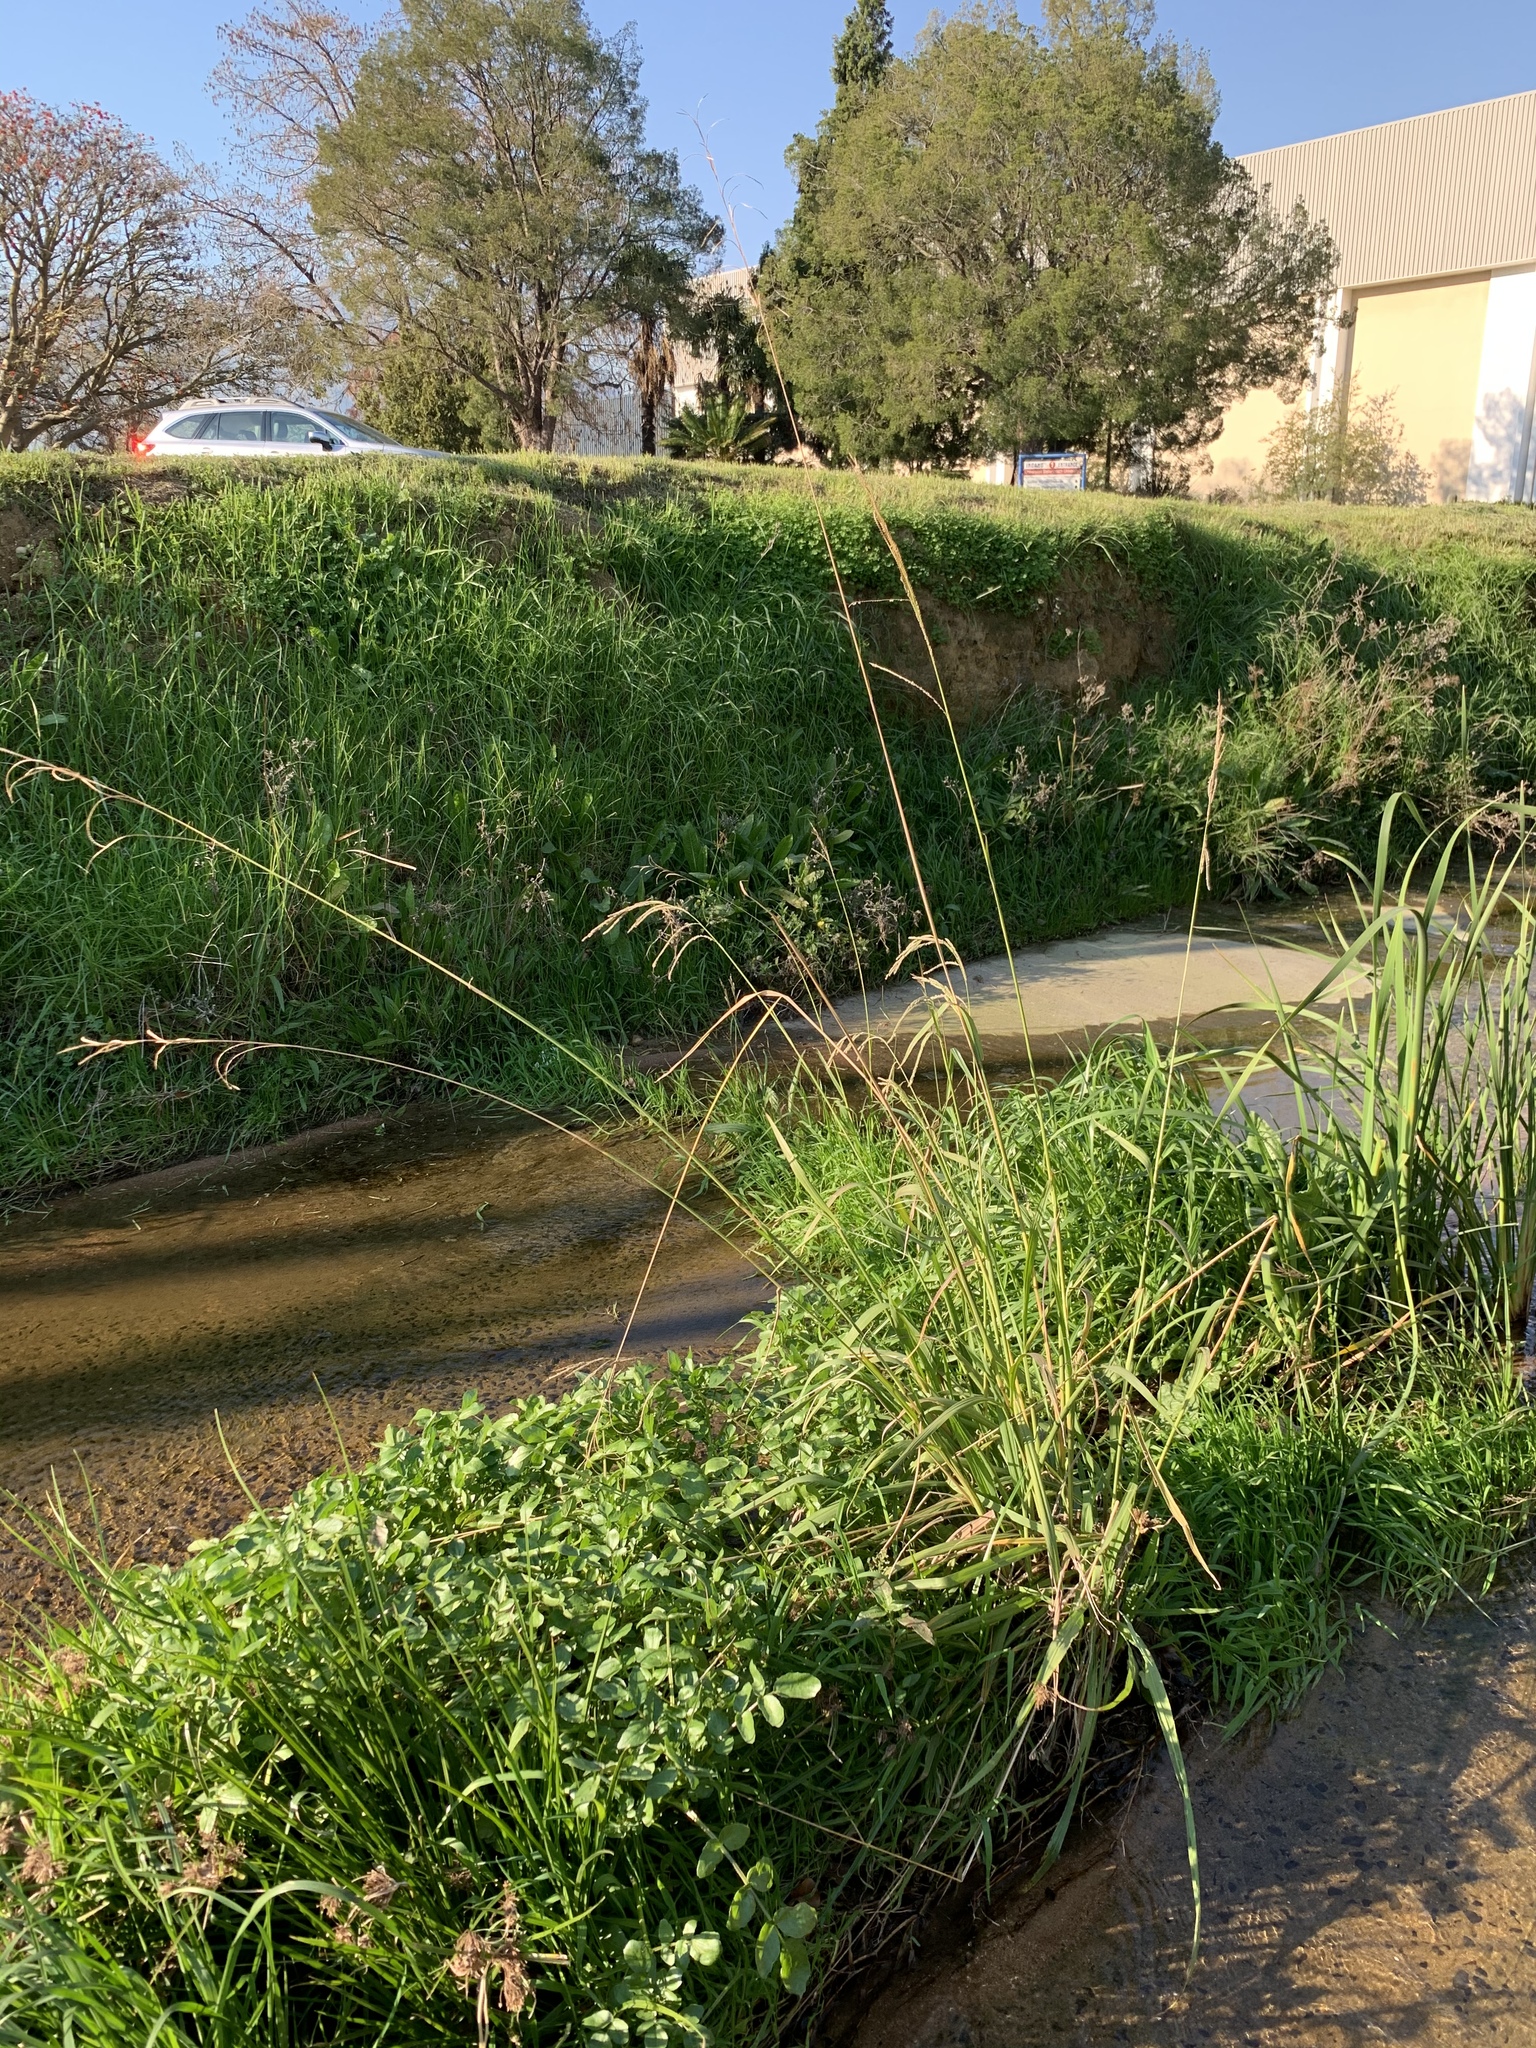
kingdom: Plantae
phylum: Tracheophyta
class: Liliopsida
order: Poales
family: Poaceae
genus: Paspalum
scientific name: Paspalum urvillei
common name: Vasey's grass
